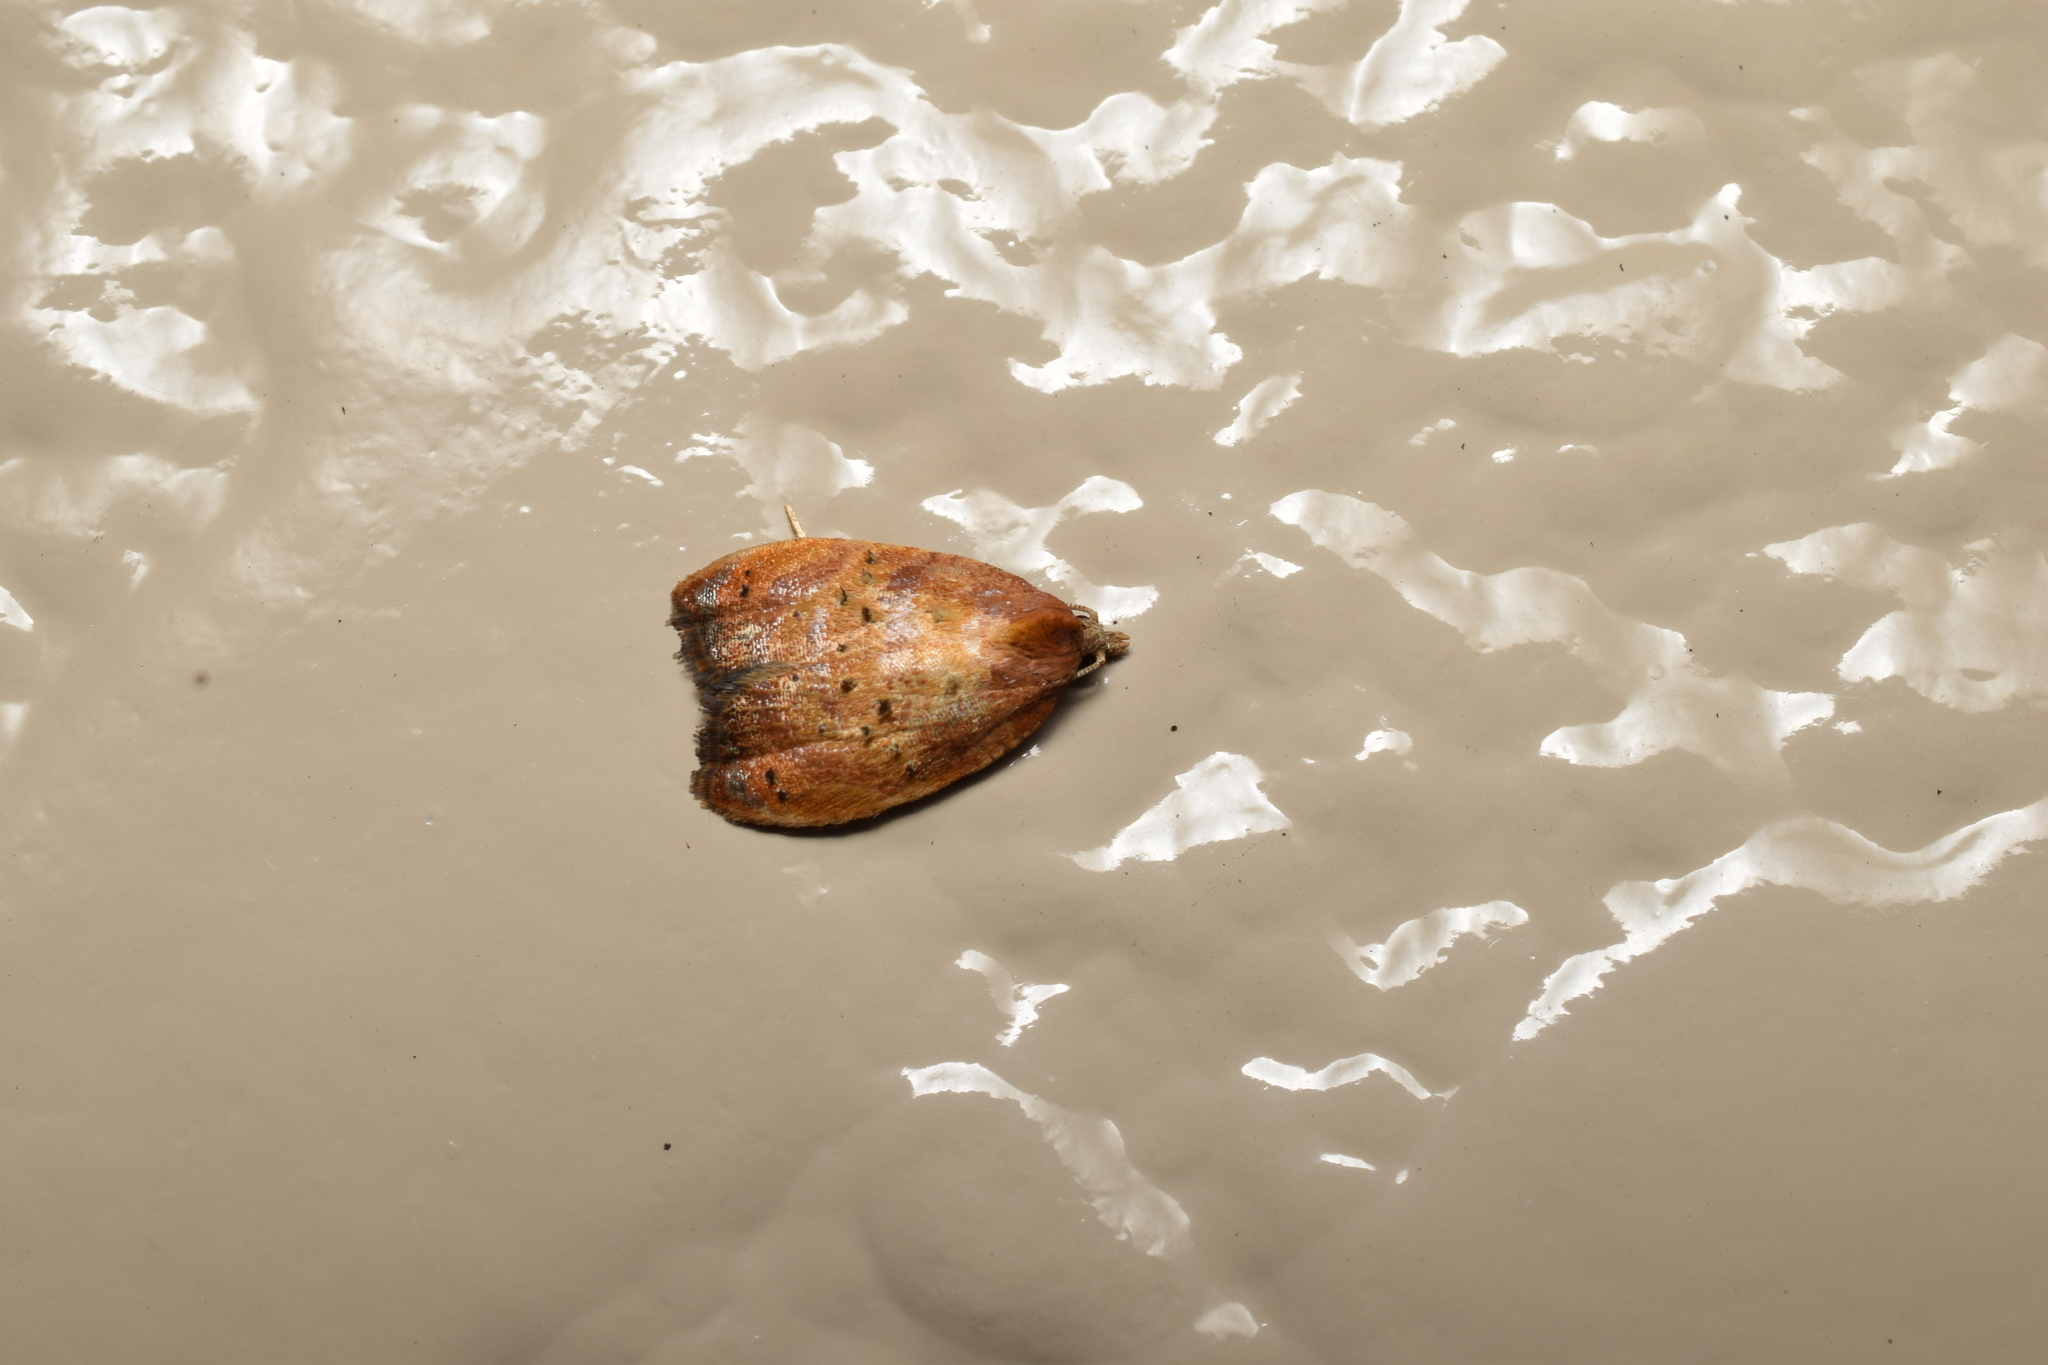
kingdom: Animalia
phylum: Arthropoda
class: Insecta
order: Lepidoptera
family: Tortricidae
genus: Acleris
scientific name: Acleris enitescens
